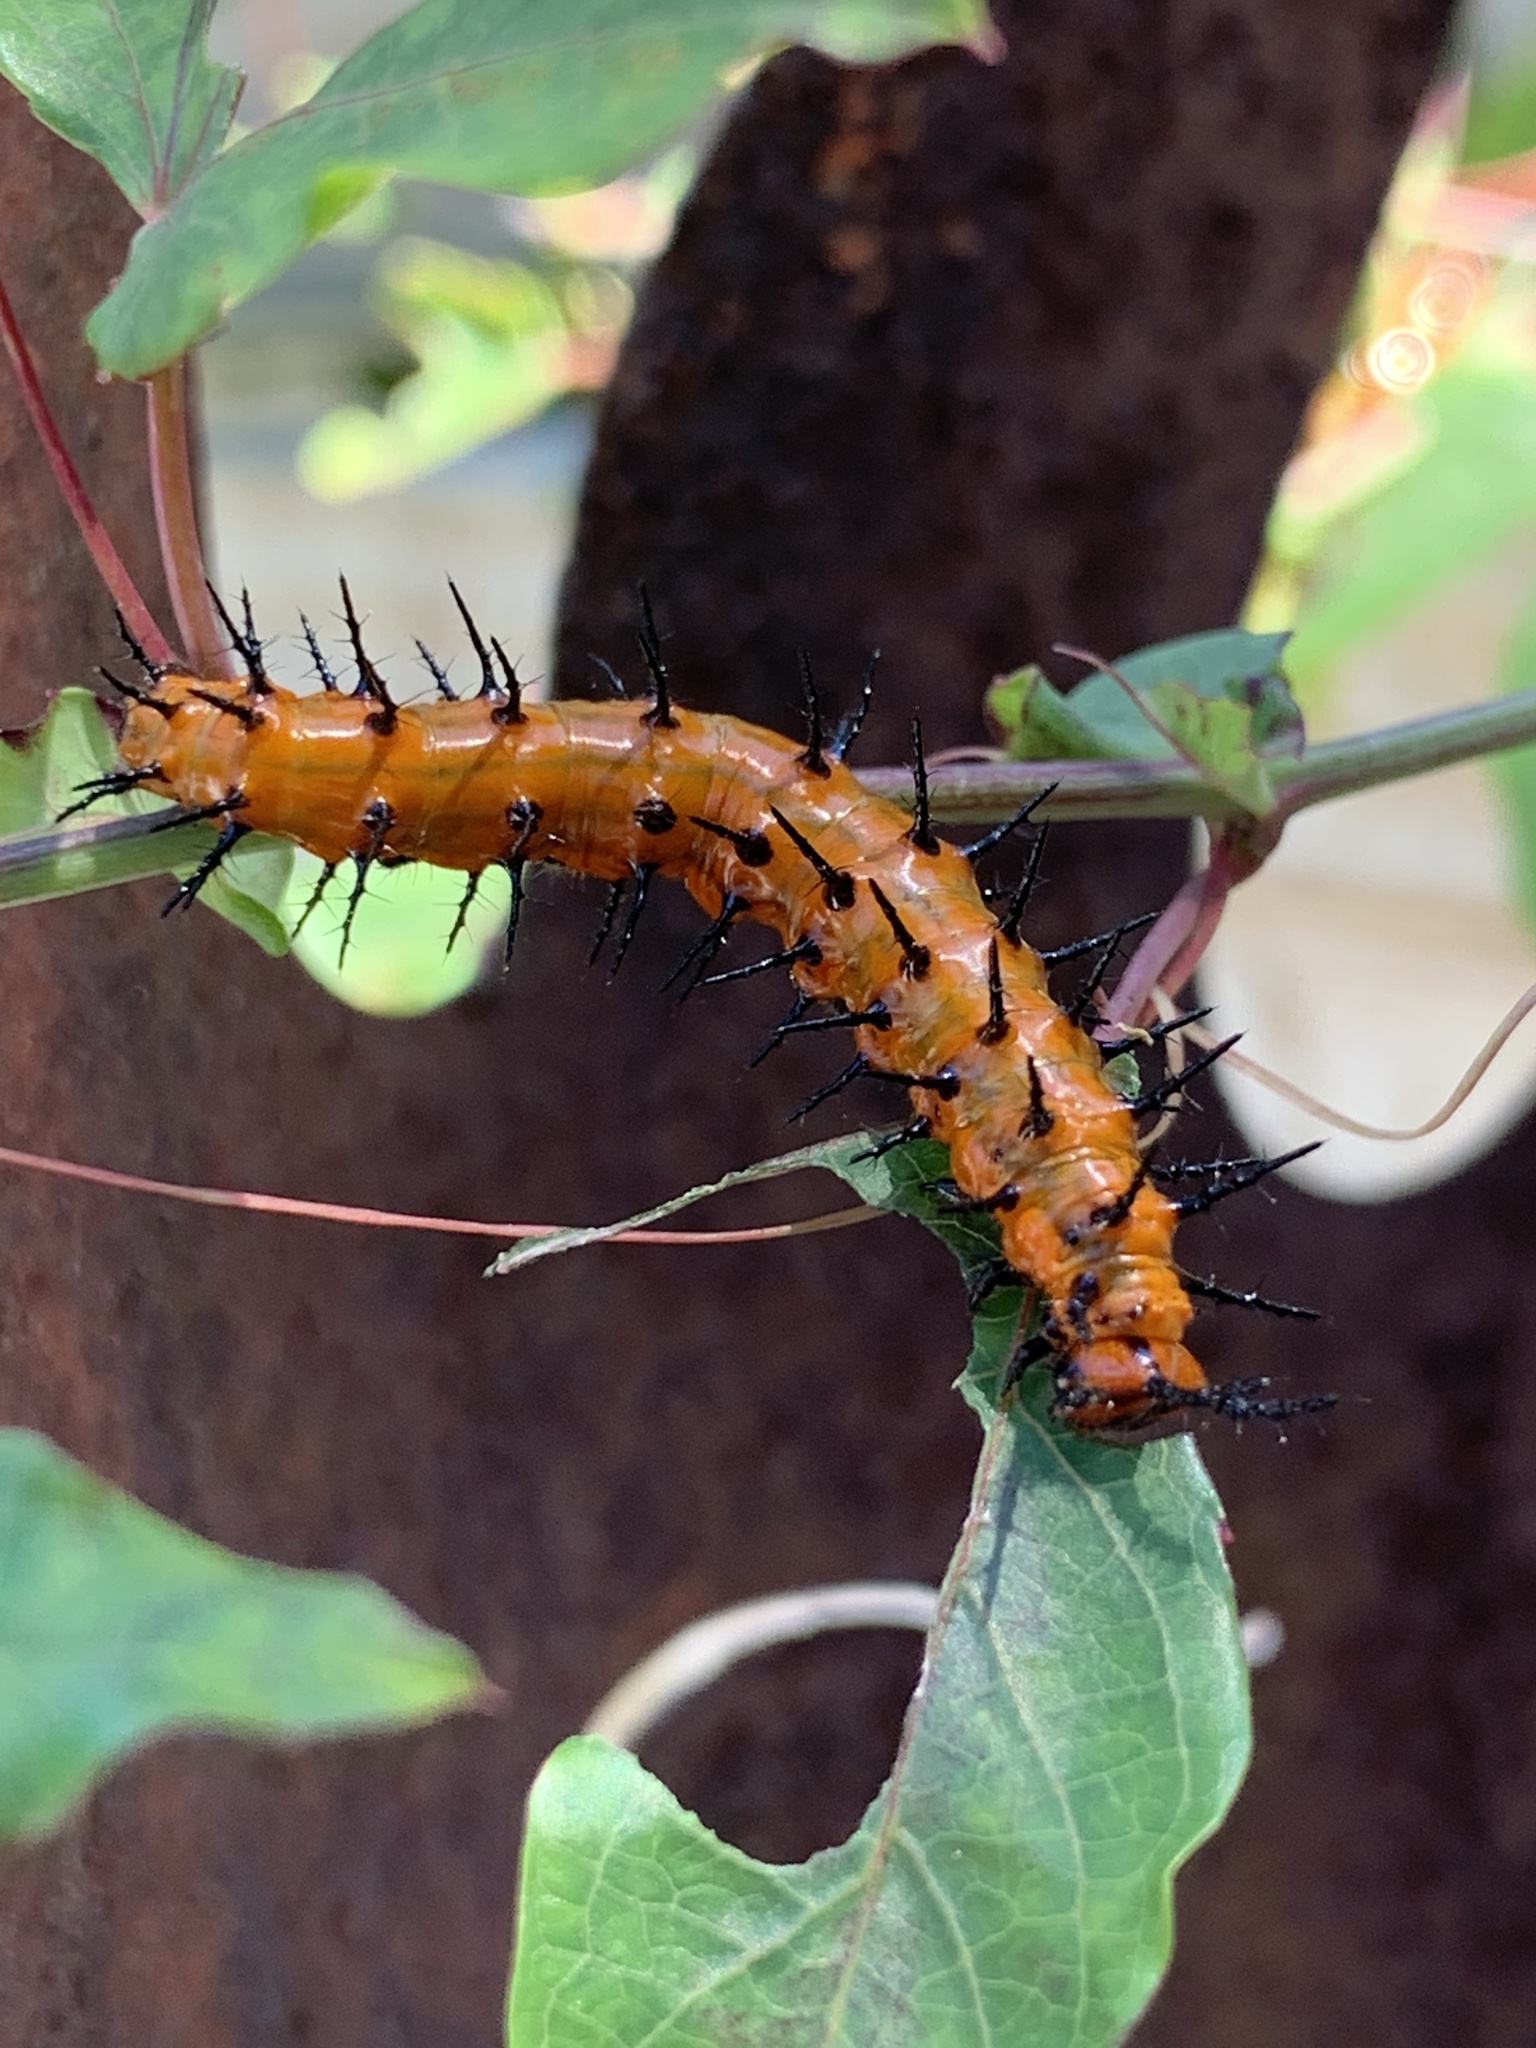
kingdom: Animalia
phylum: Arthropoda
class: Insecta
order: Lepidoptera
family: Nymphalidae
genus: Dione
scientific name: Dione vanillae
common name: Gulf fritillary
